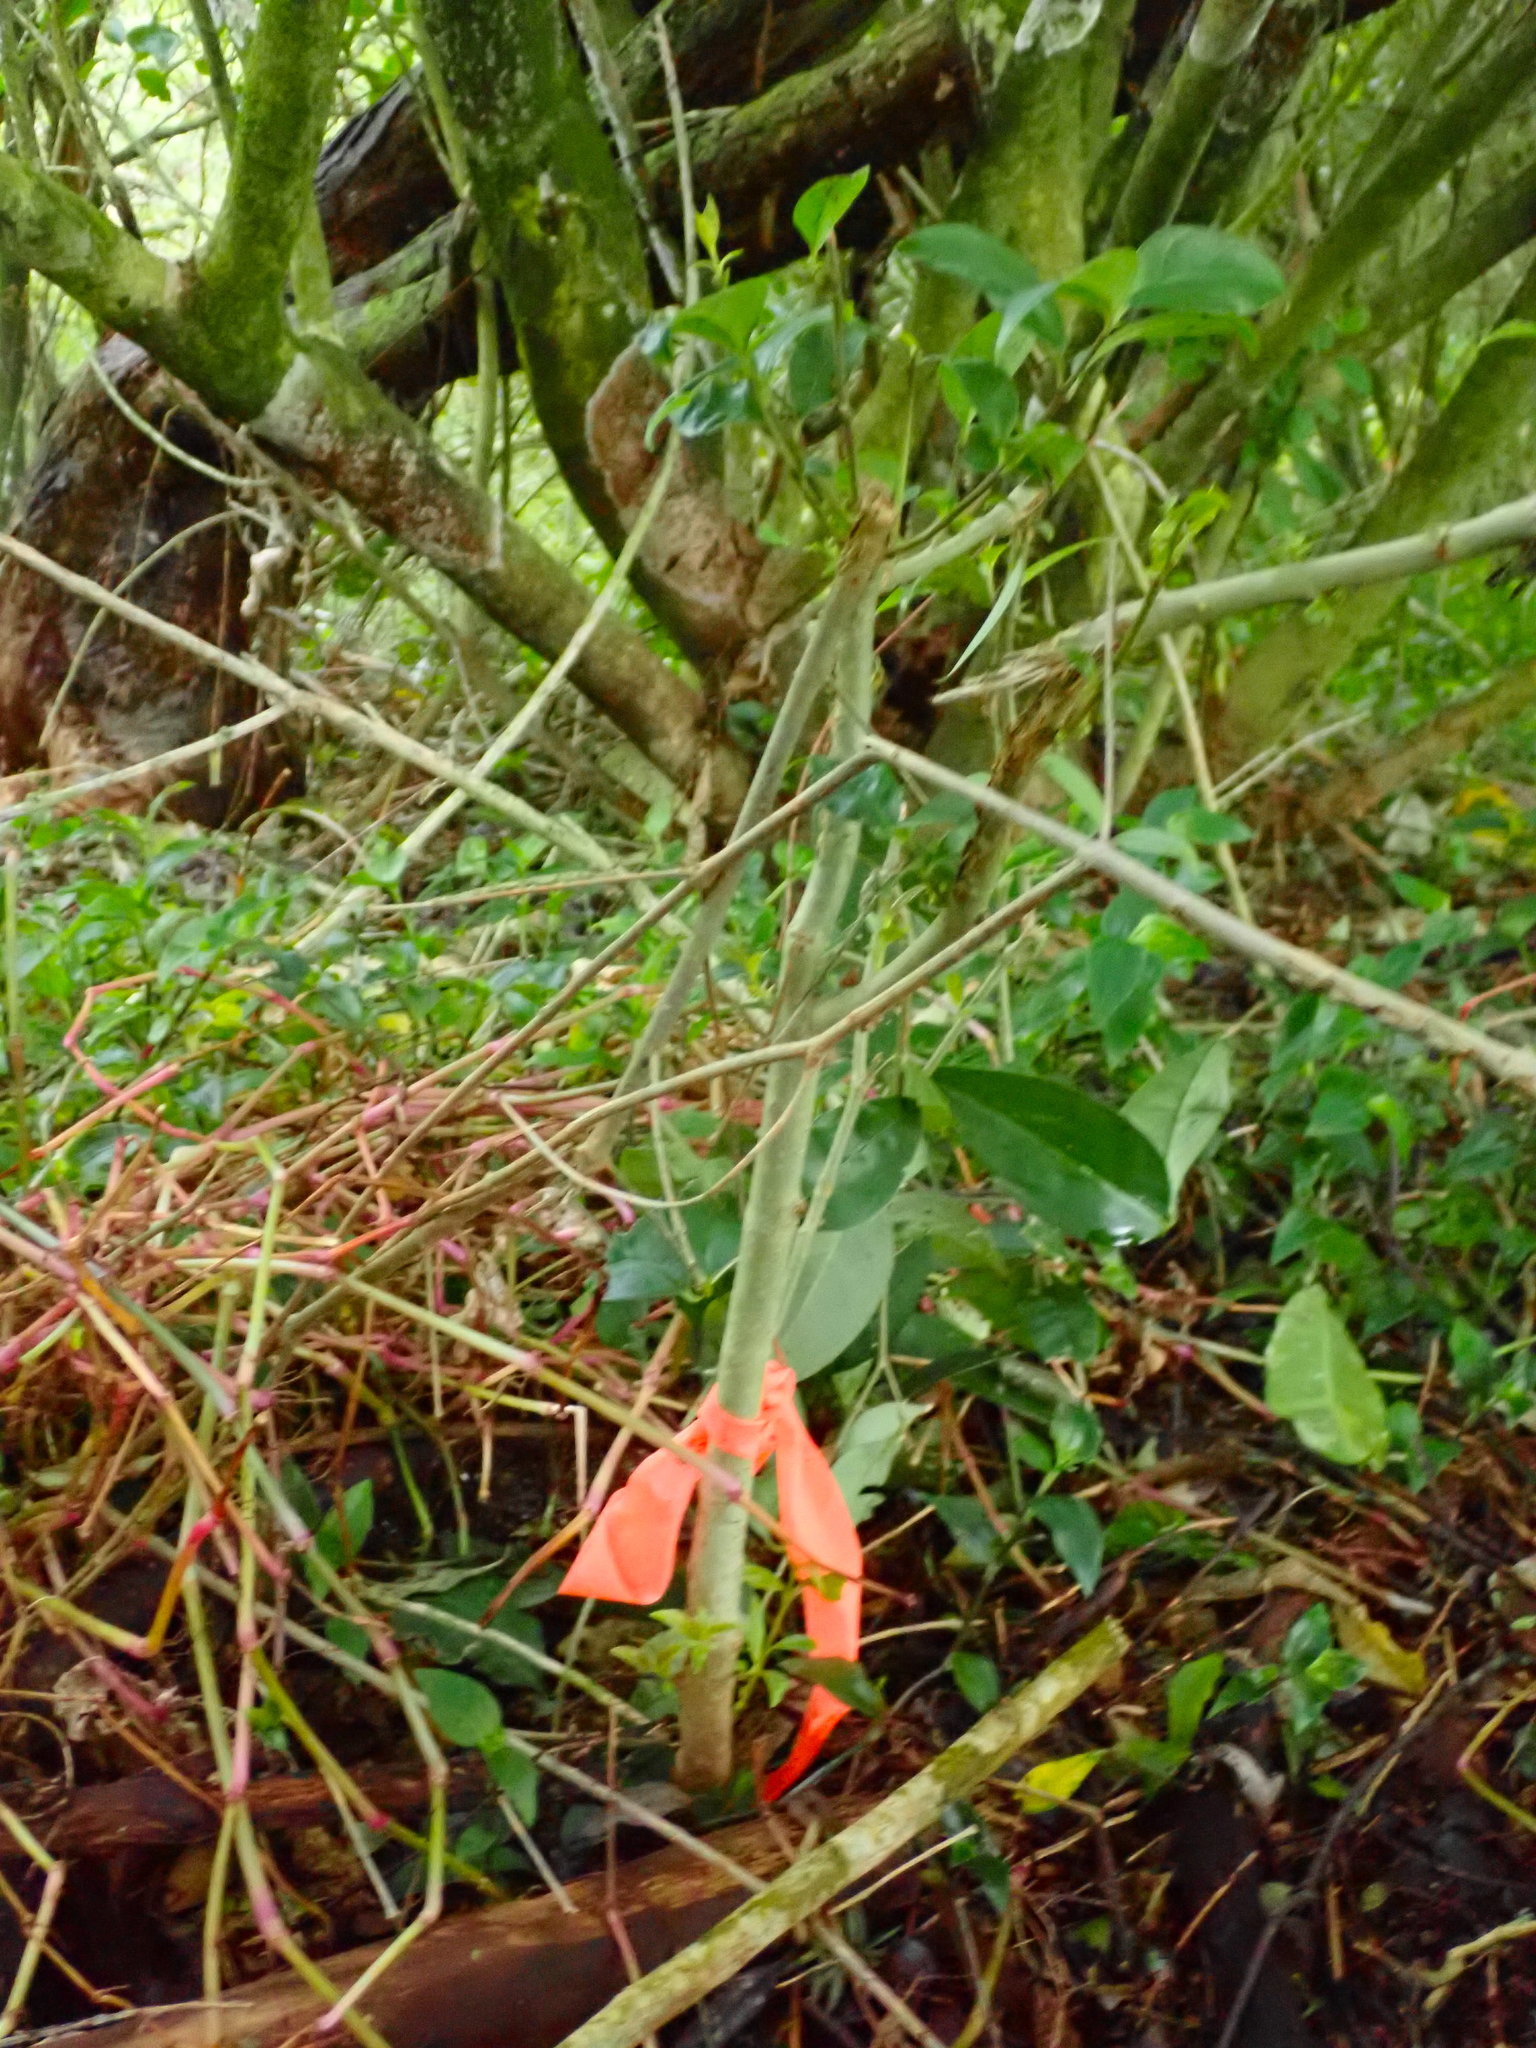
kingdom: Plantae
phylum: Tracheophyta
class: Magnoliopsida
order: Lamiales
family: Oleaceae
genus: Ligustrum
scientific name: Ligustrum lucidum
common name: Glossy privet
